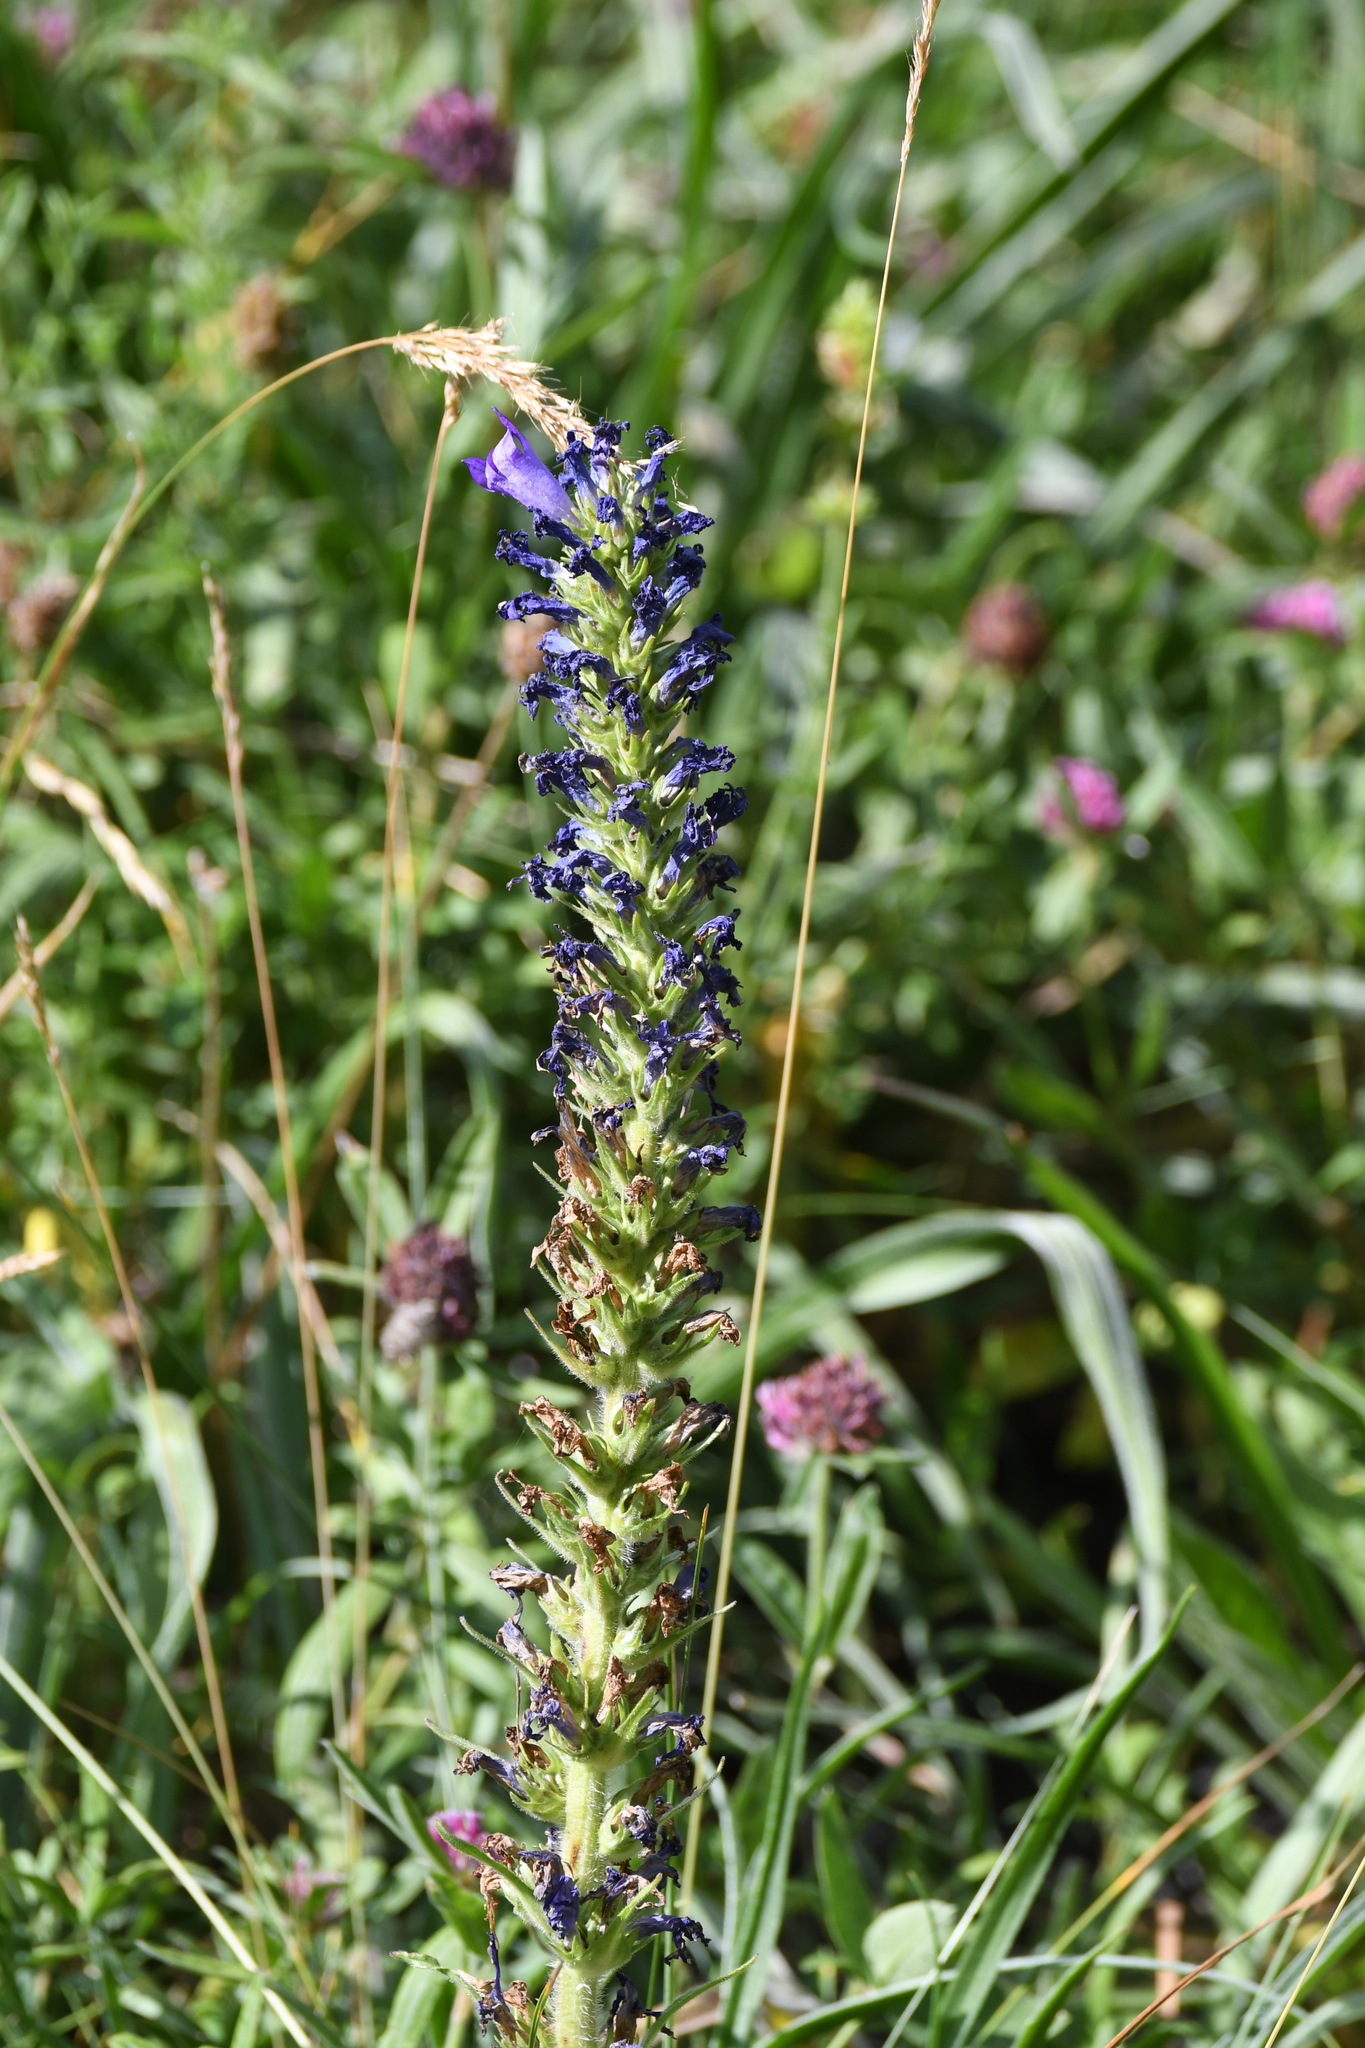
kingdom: Plantae
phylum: Tracheophyta
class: Magnoliopsida
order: Asterales
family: Campanulaceae
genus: Campanula
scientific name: Campanula spicata
